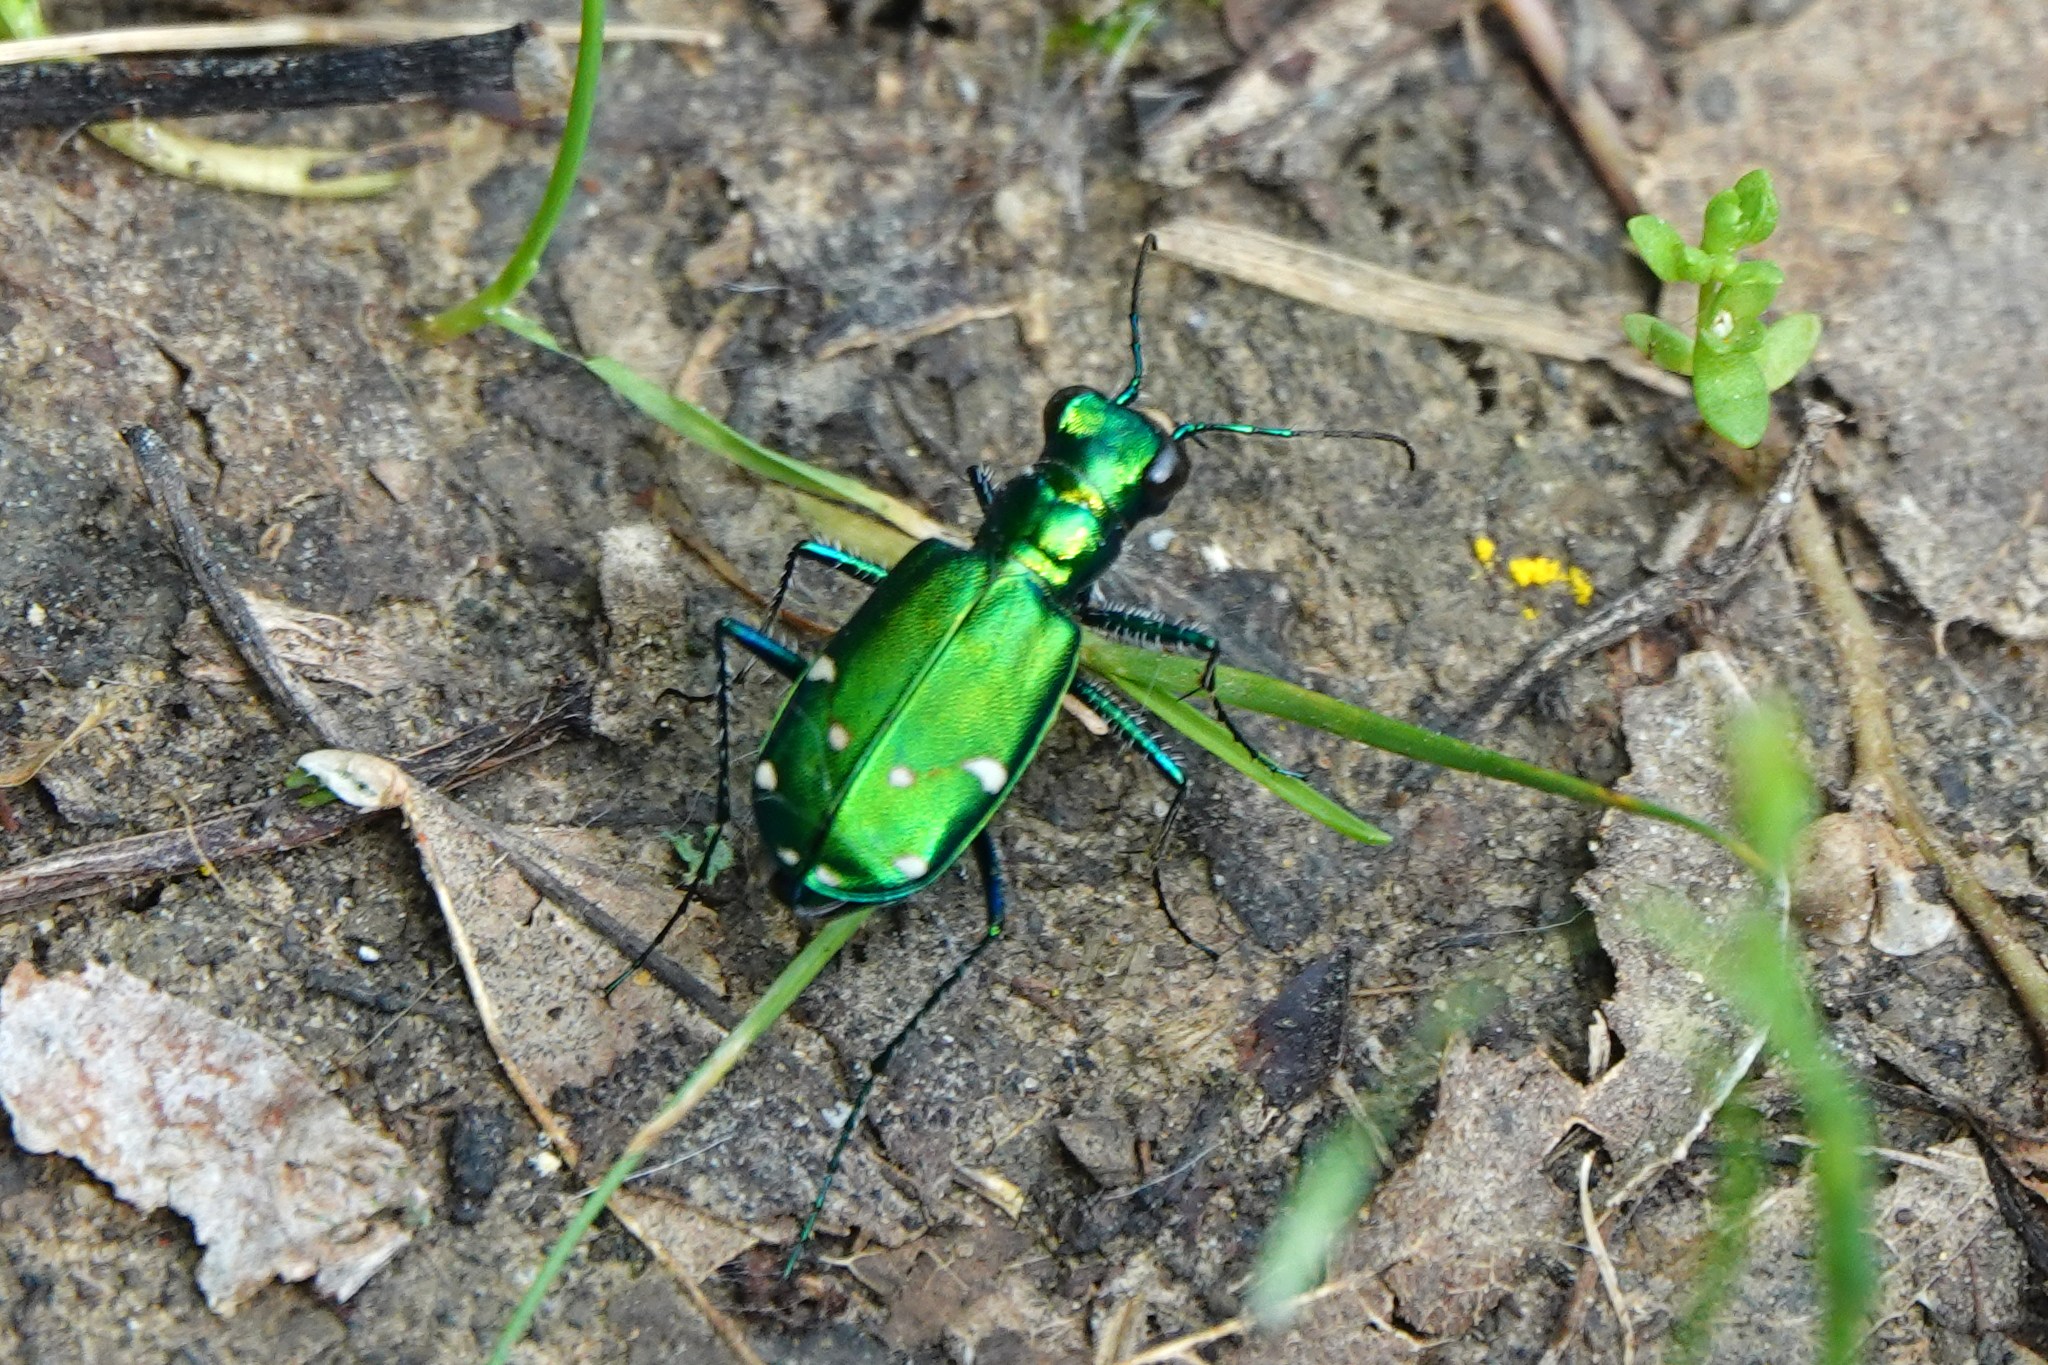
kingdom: Animalia
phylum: Arthropoda
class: Insecta
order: Coleoptera
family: Carabidae
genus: Cicindela
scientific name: Cicindela sexguttata
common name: Six-spotted tiger beetle
